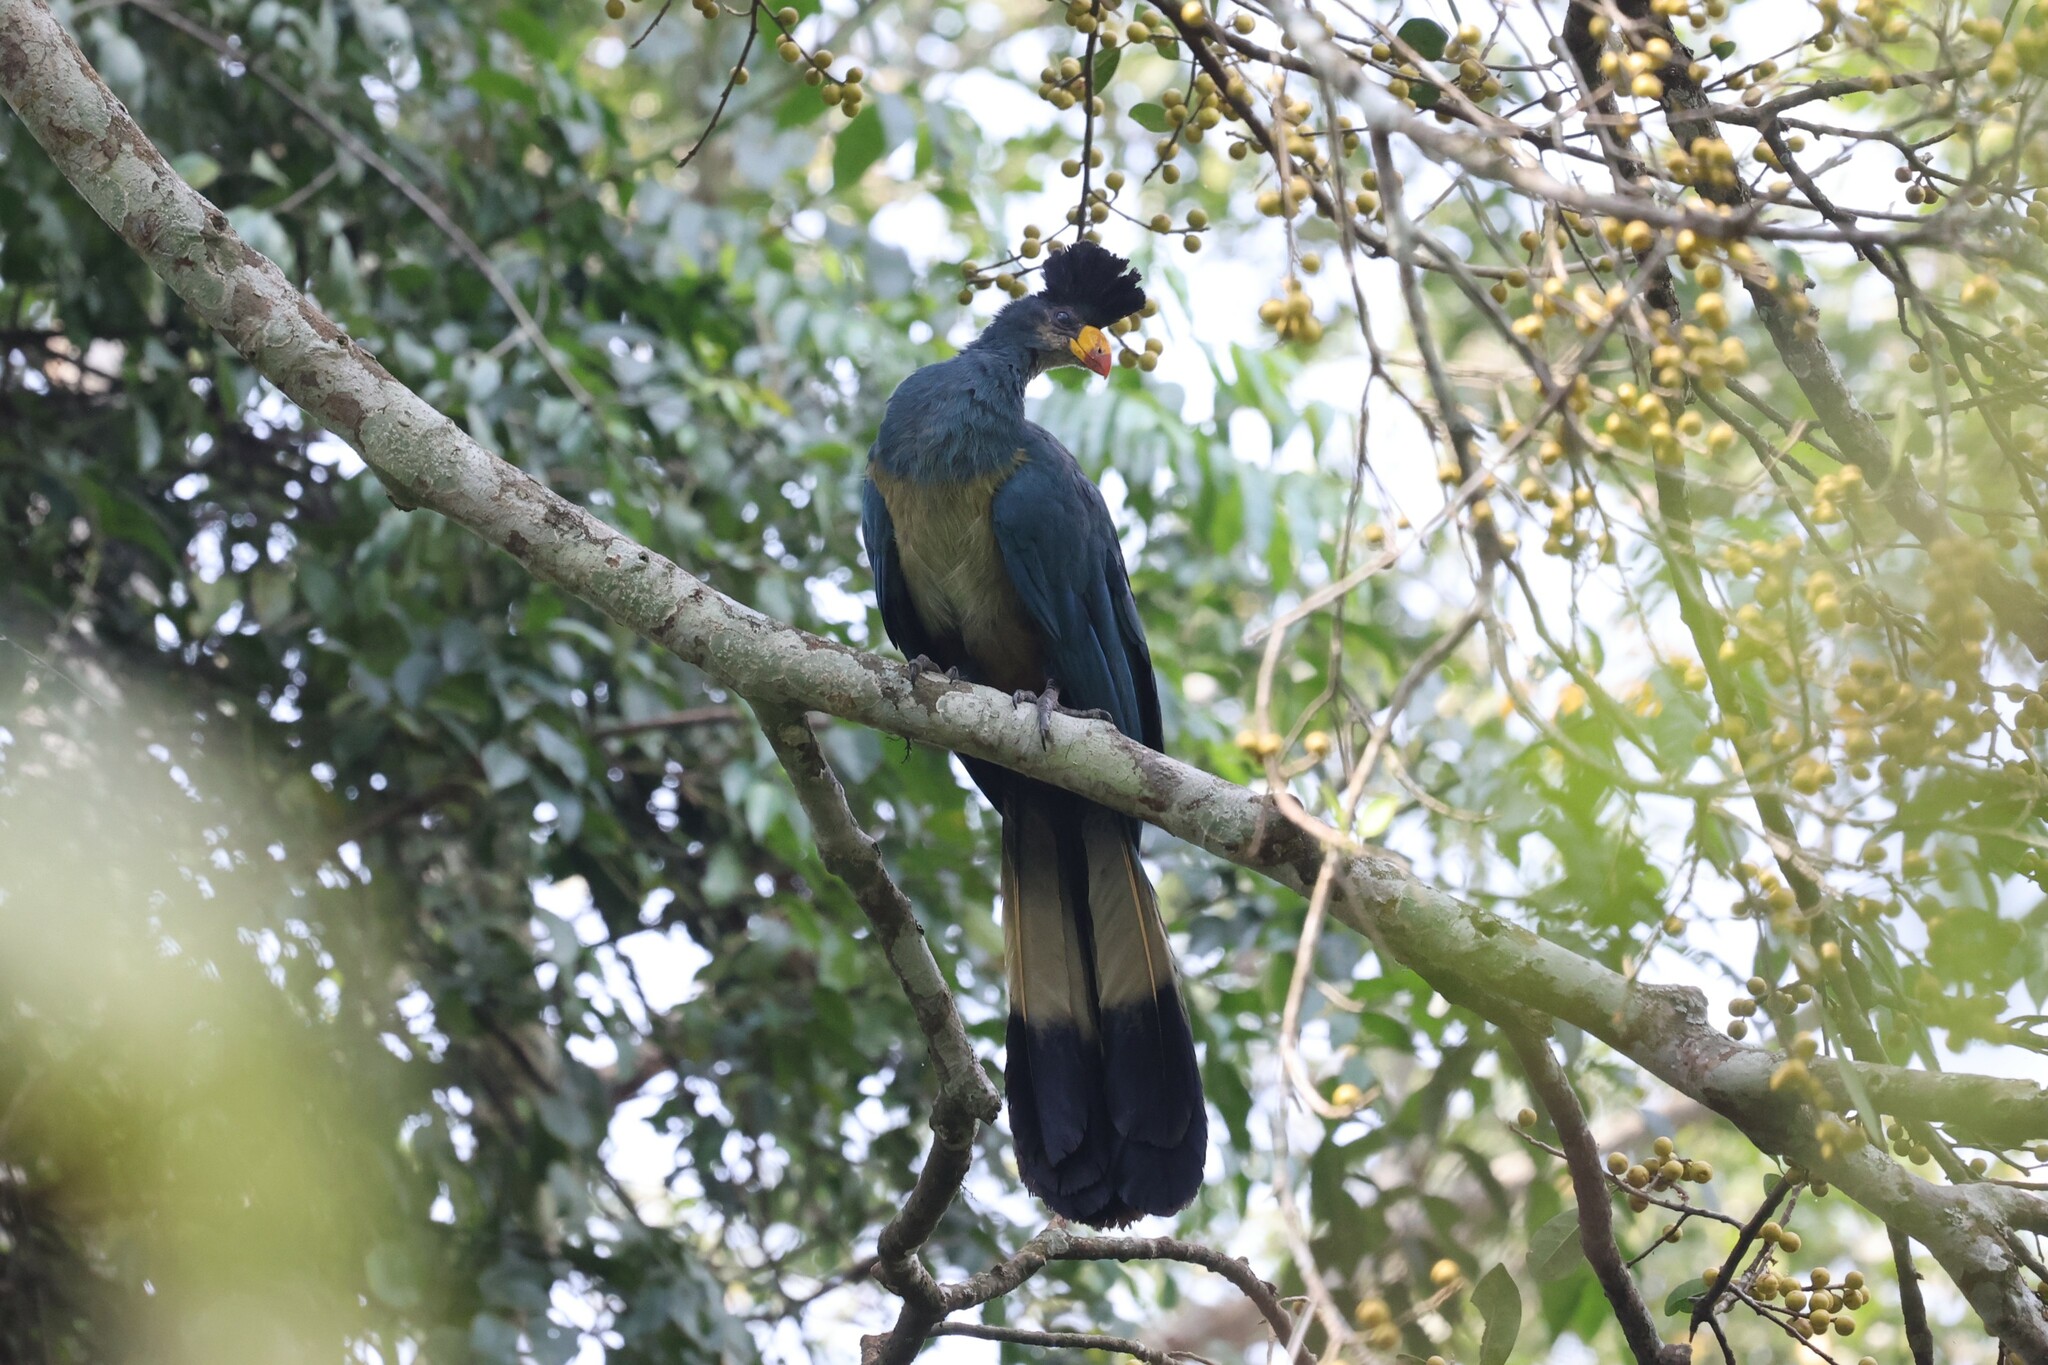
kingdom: Animalia
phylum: Chordata
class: Aves
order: Musophagiformes
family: Musophagidae
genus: Corythaeola
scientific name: Corythaeola cristata
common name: Great blue turaco
